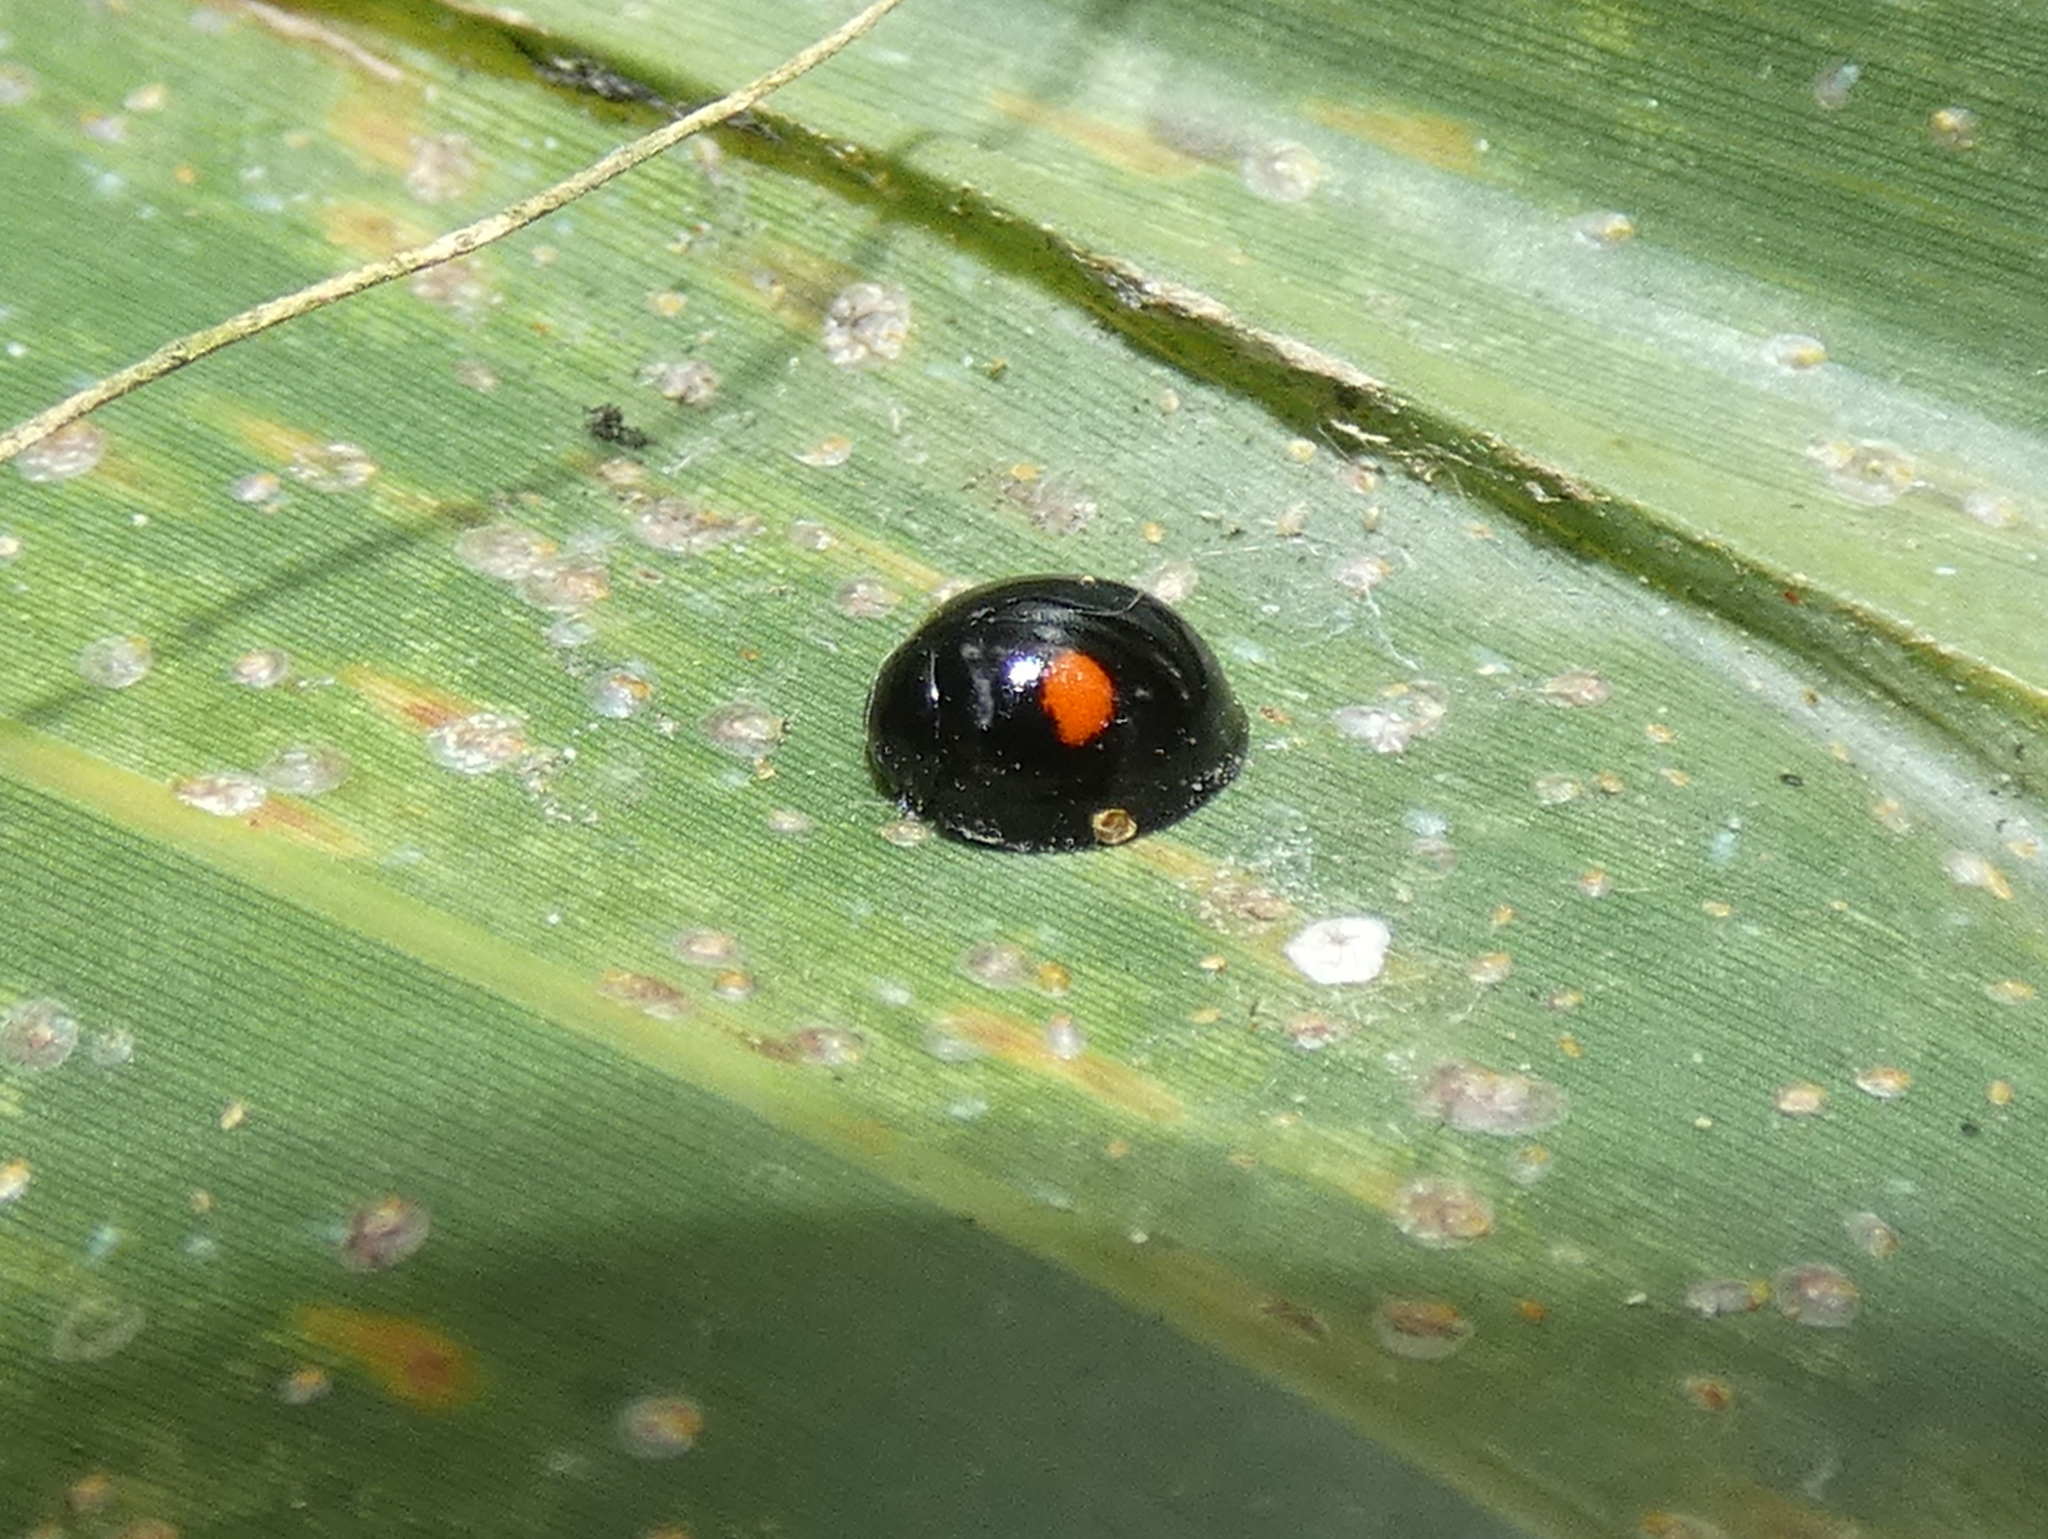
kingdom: Animalia
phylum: Arthropoda
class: Insecta
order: Coleoptera
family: Coccinellidae
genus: Chilocorus
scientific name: Chilocorus stigma
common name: Twicestabbed lady beetle
